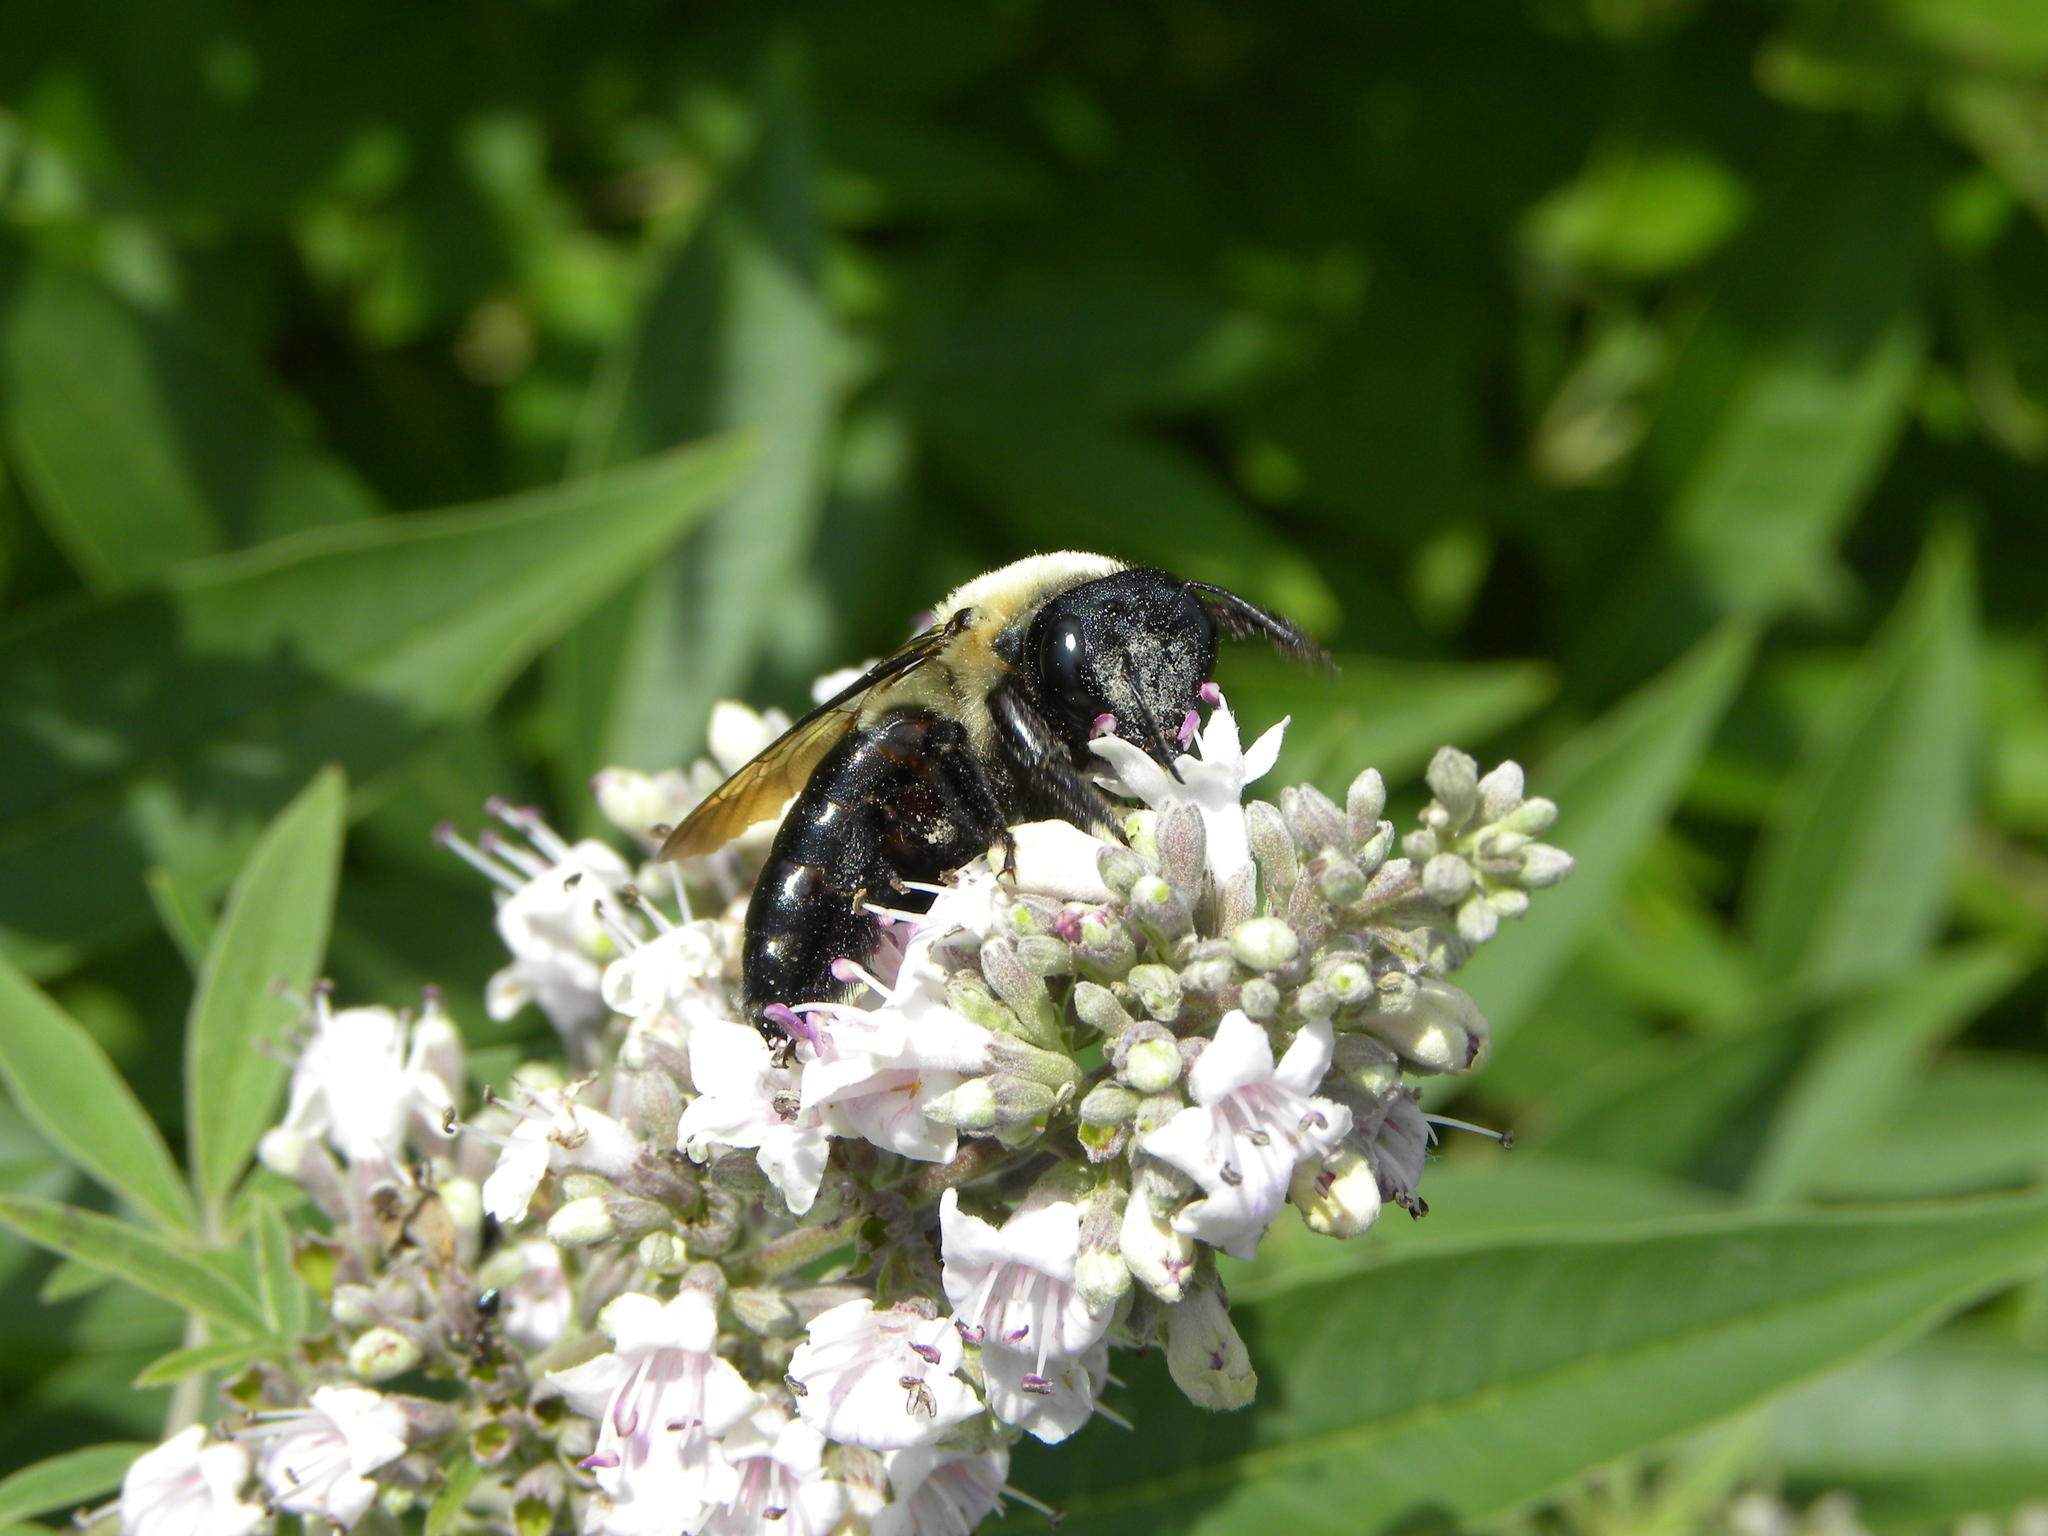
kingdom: Animalia
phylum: Arthropoda
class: Insecta
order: Hymenoptera
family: Apidae
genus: Xylocopa
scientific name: Xylocopa virginica
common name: Carpenter bee
